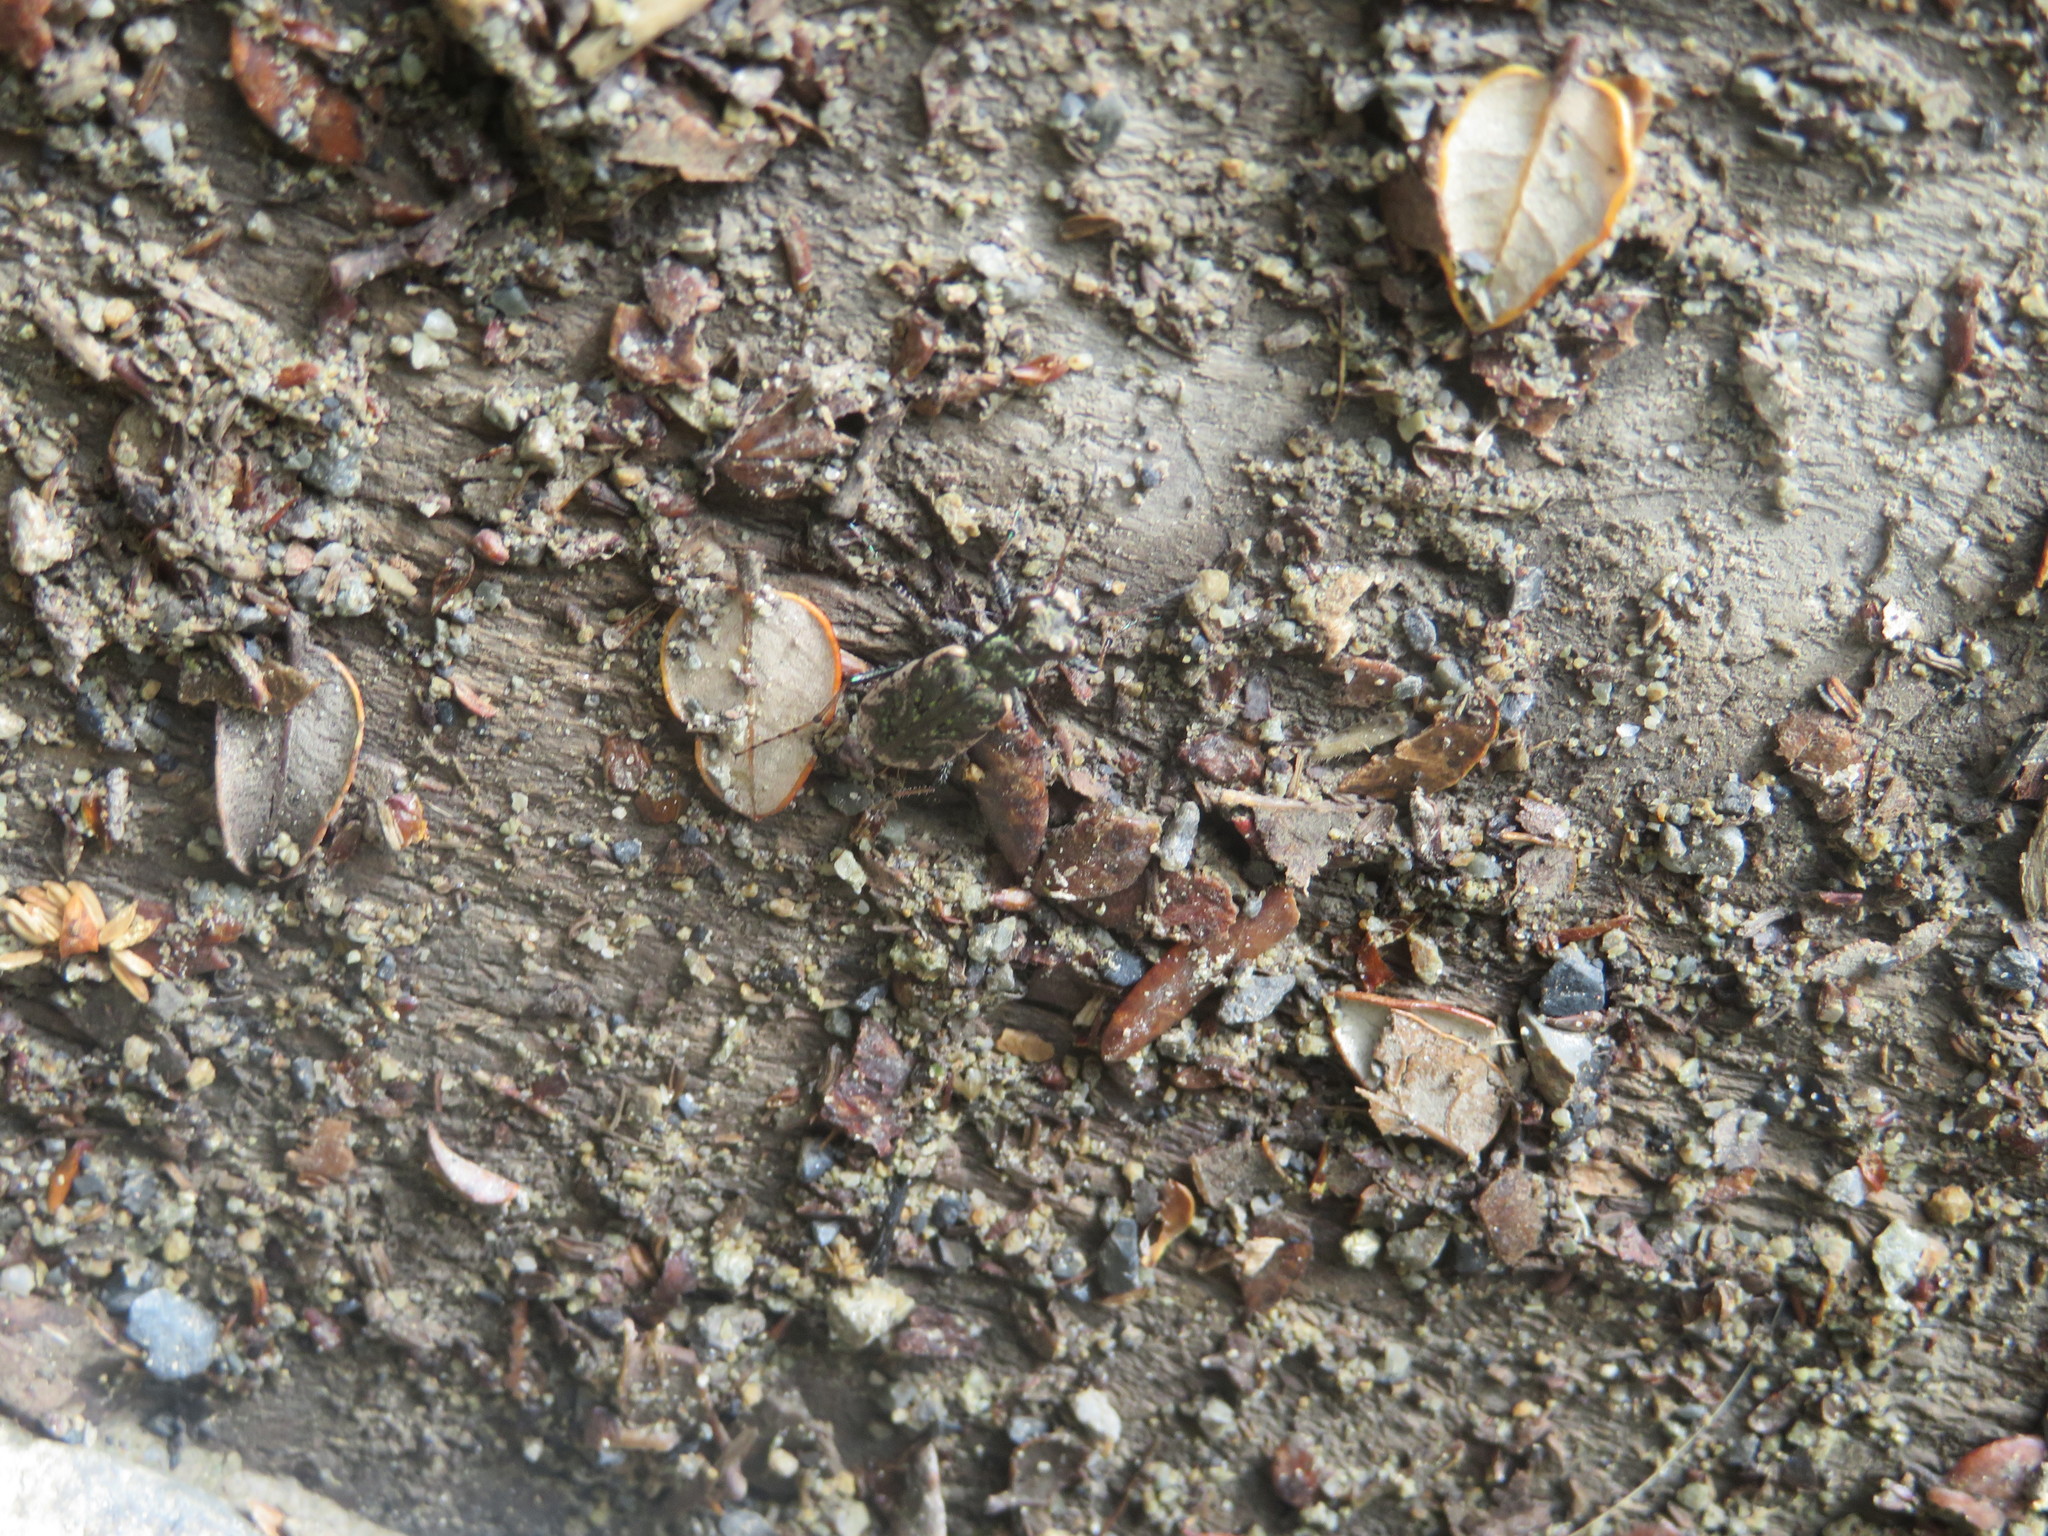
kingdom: Animalia
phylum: Arthropoda
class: Insecta
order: Coleoptera
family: Carabidae
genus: Neocicindela
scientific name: Neocicindela garnerae
